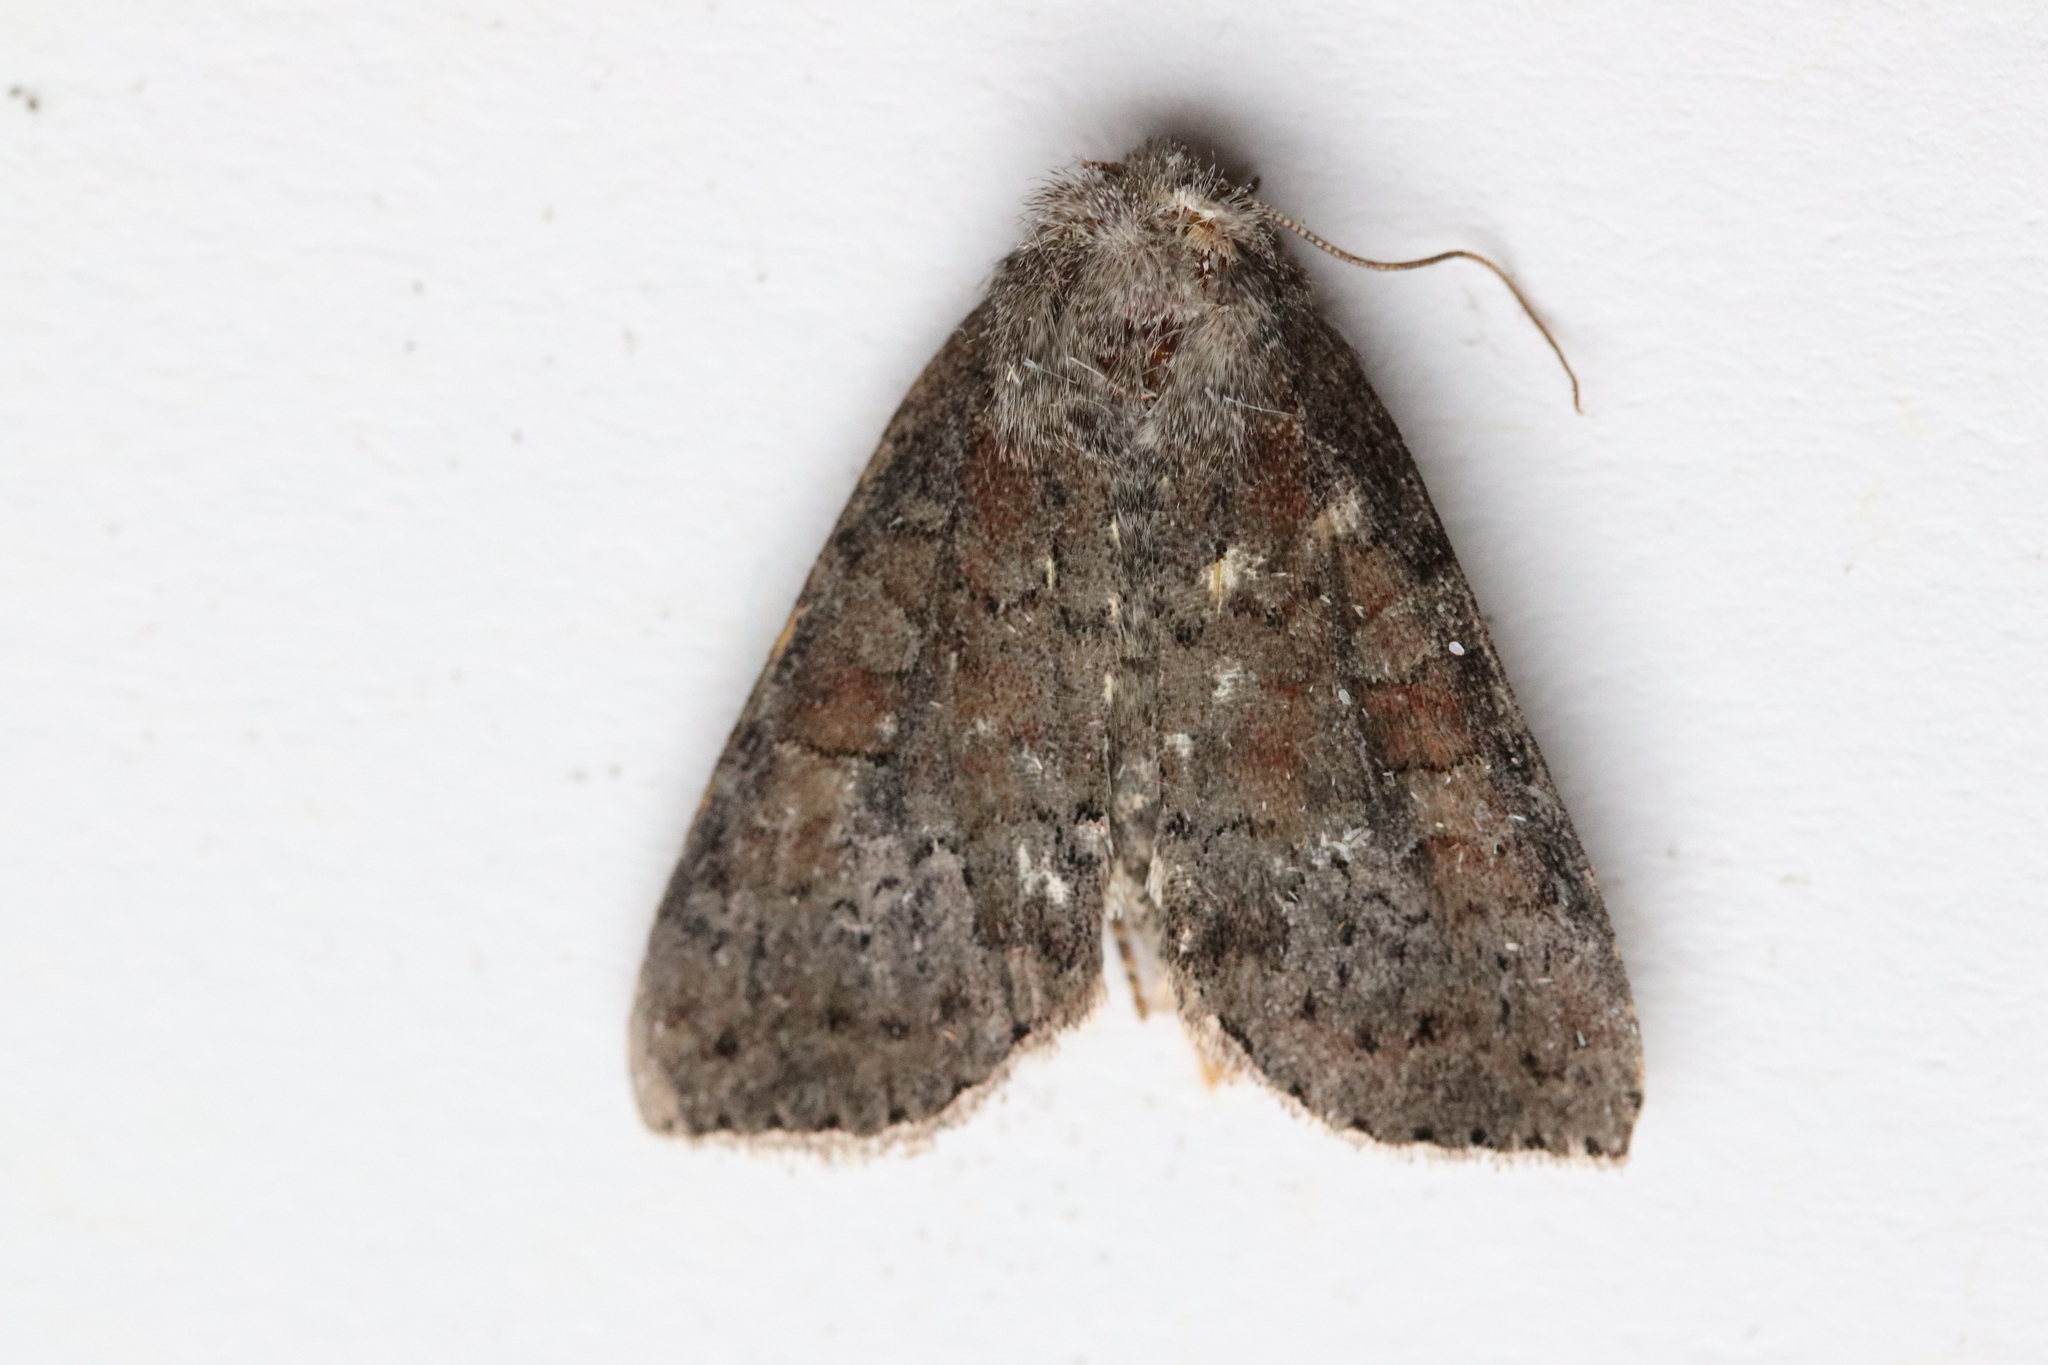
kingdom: Animalia
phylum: Arthropoda
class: Insecta
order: Lepidoptera
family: Noctuidae
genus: Parastichtis
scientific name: Parastichtis suspecta
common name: Suspected
